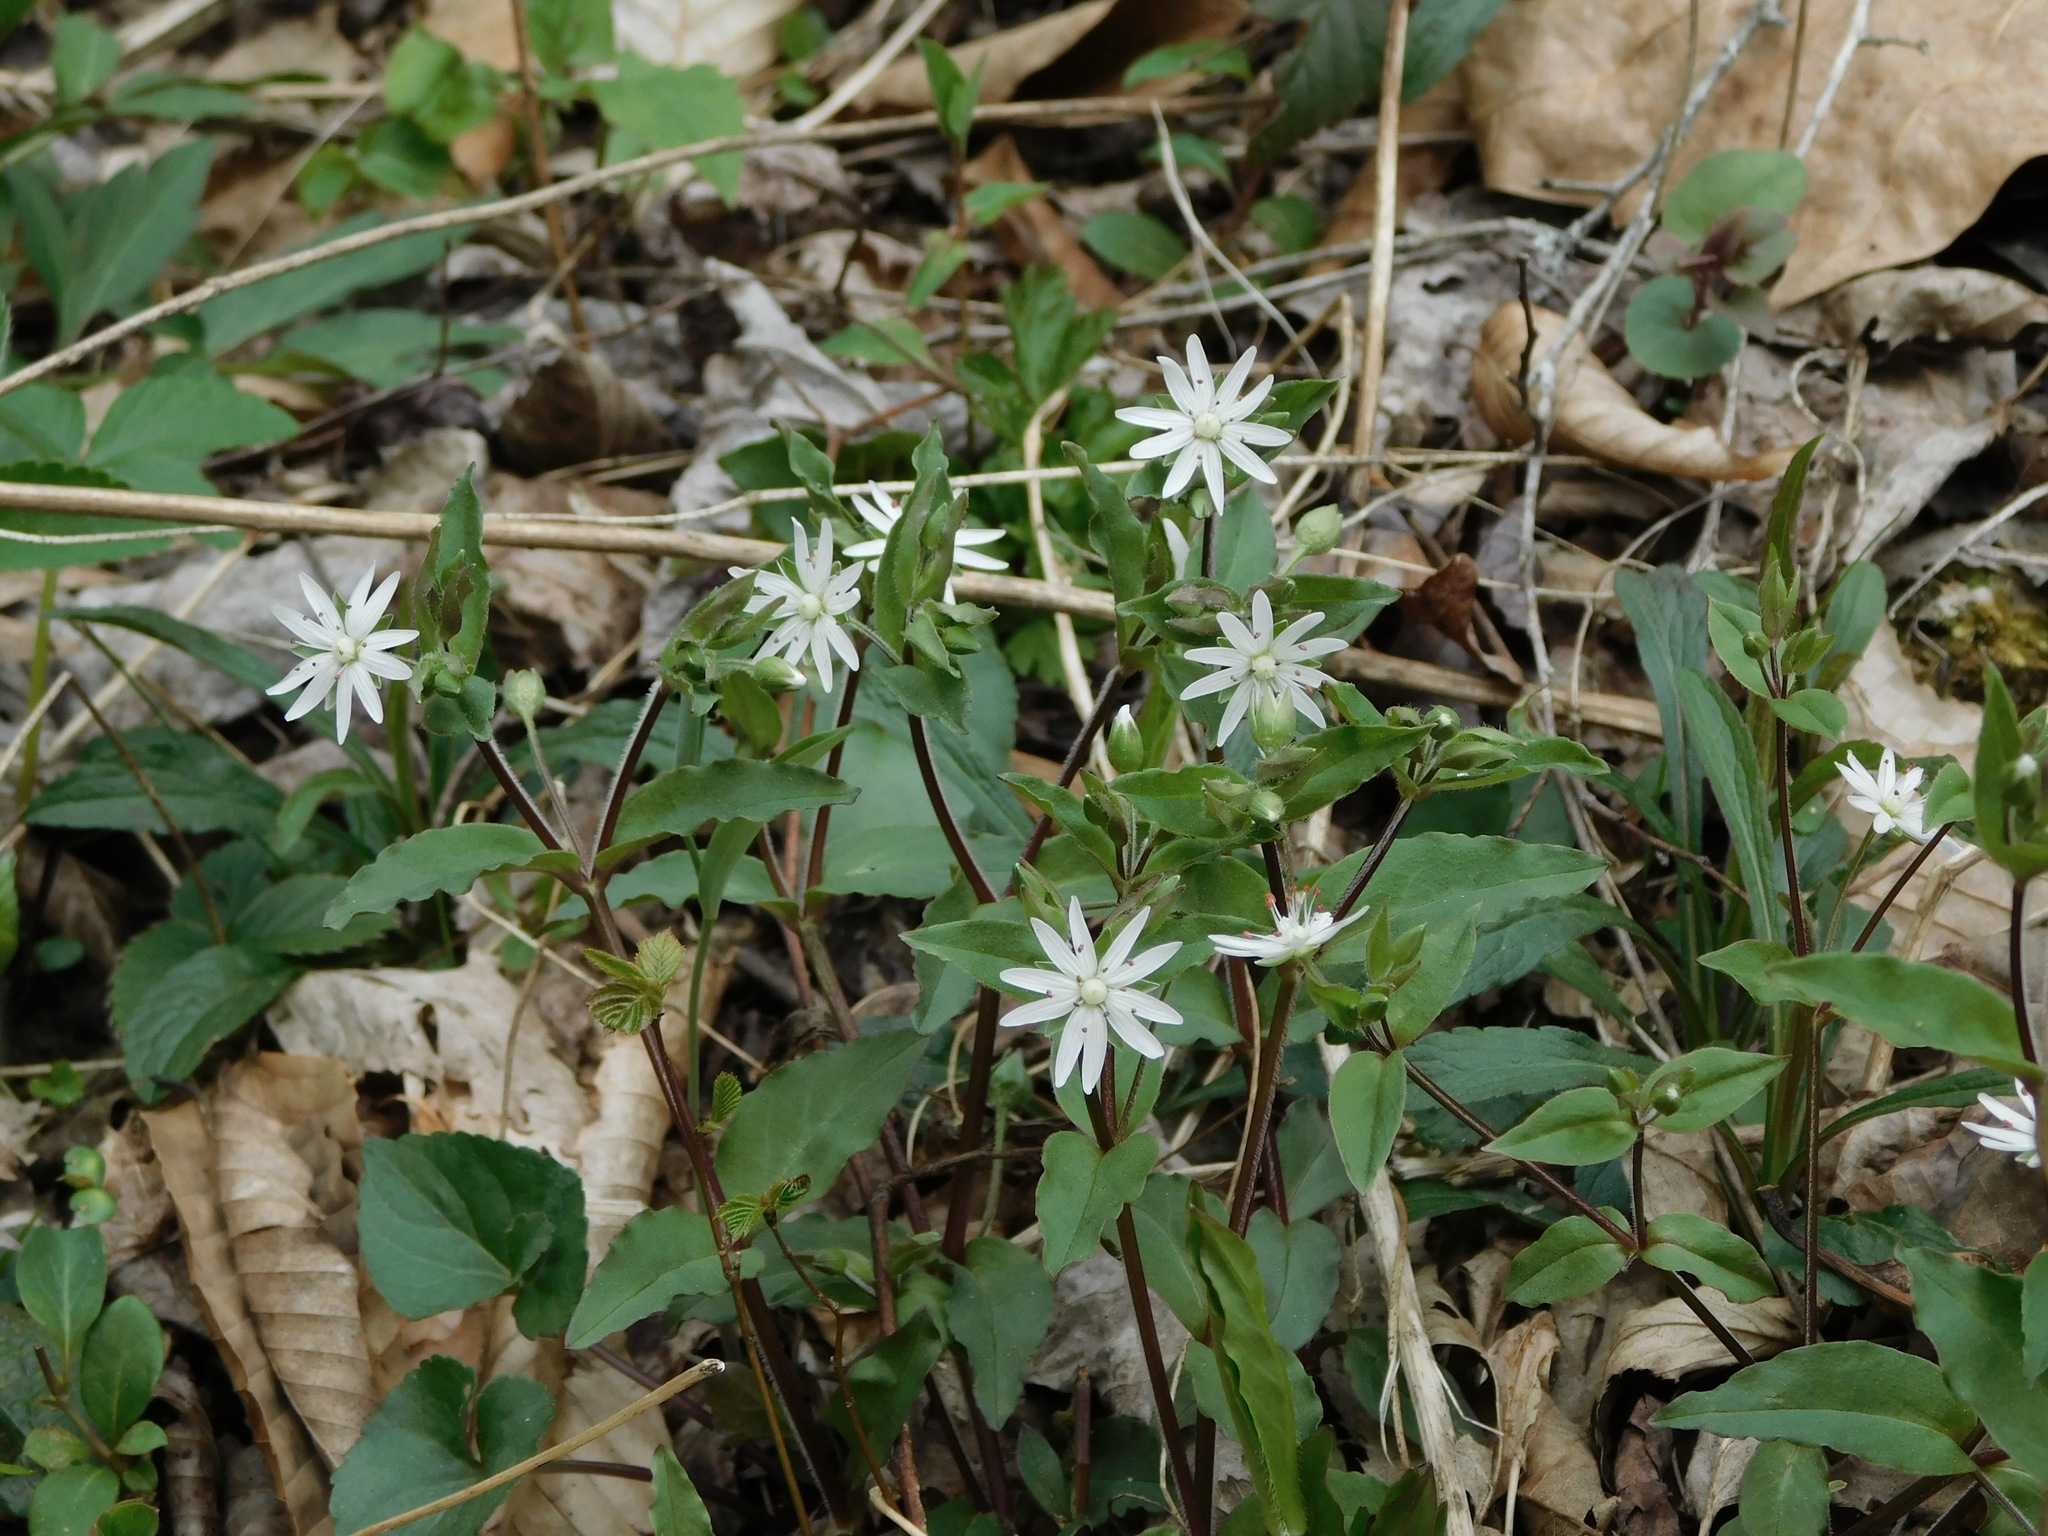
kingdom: Plantae
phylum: Tracheophyta
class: Magnoliopsida
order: Caryophyllales
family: Caryophyllaceae
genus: Stellaria
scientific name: Stellaria pubera
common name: Star chickweed
